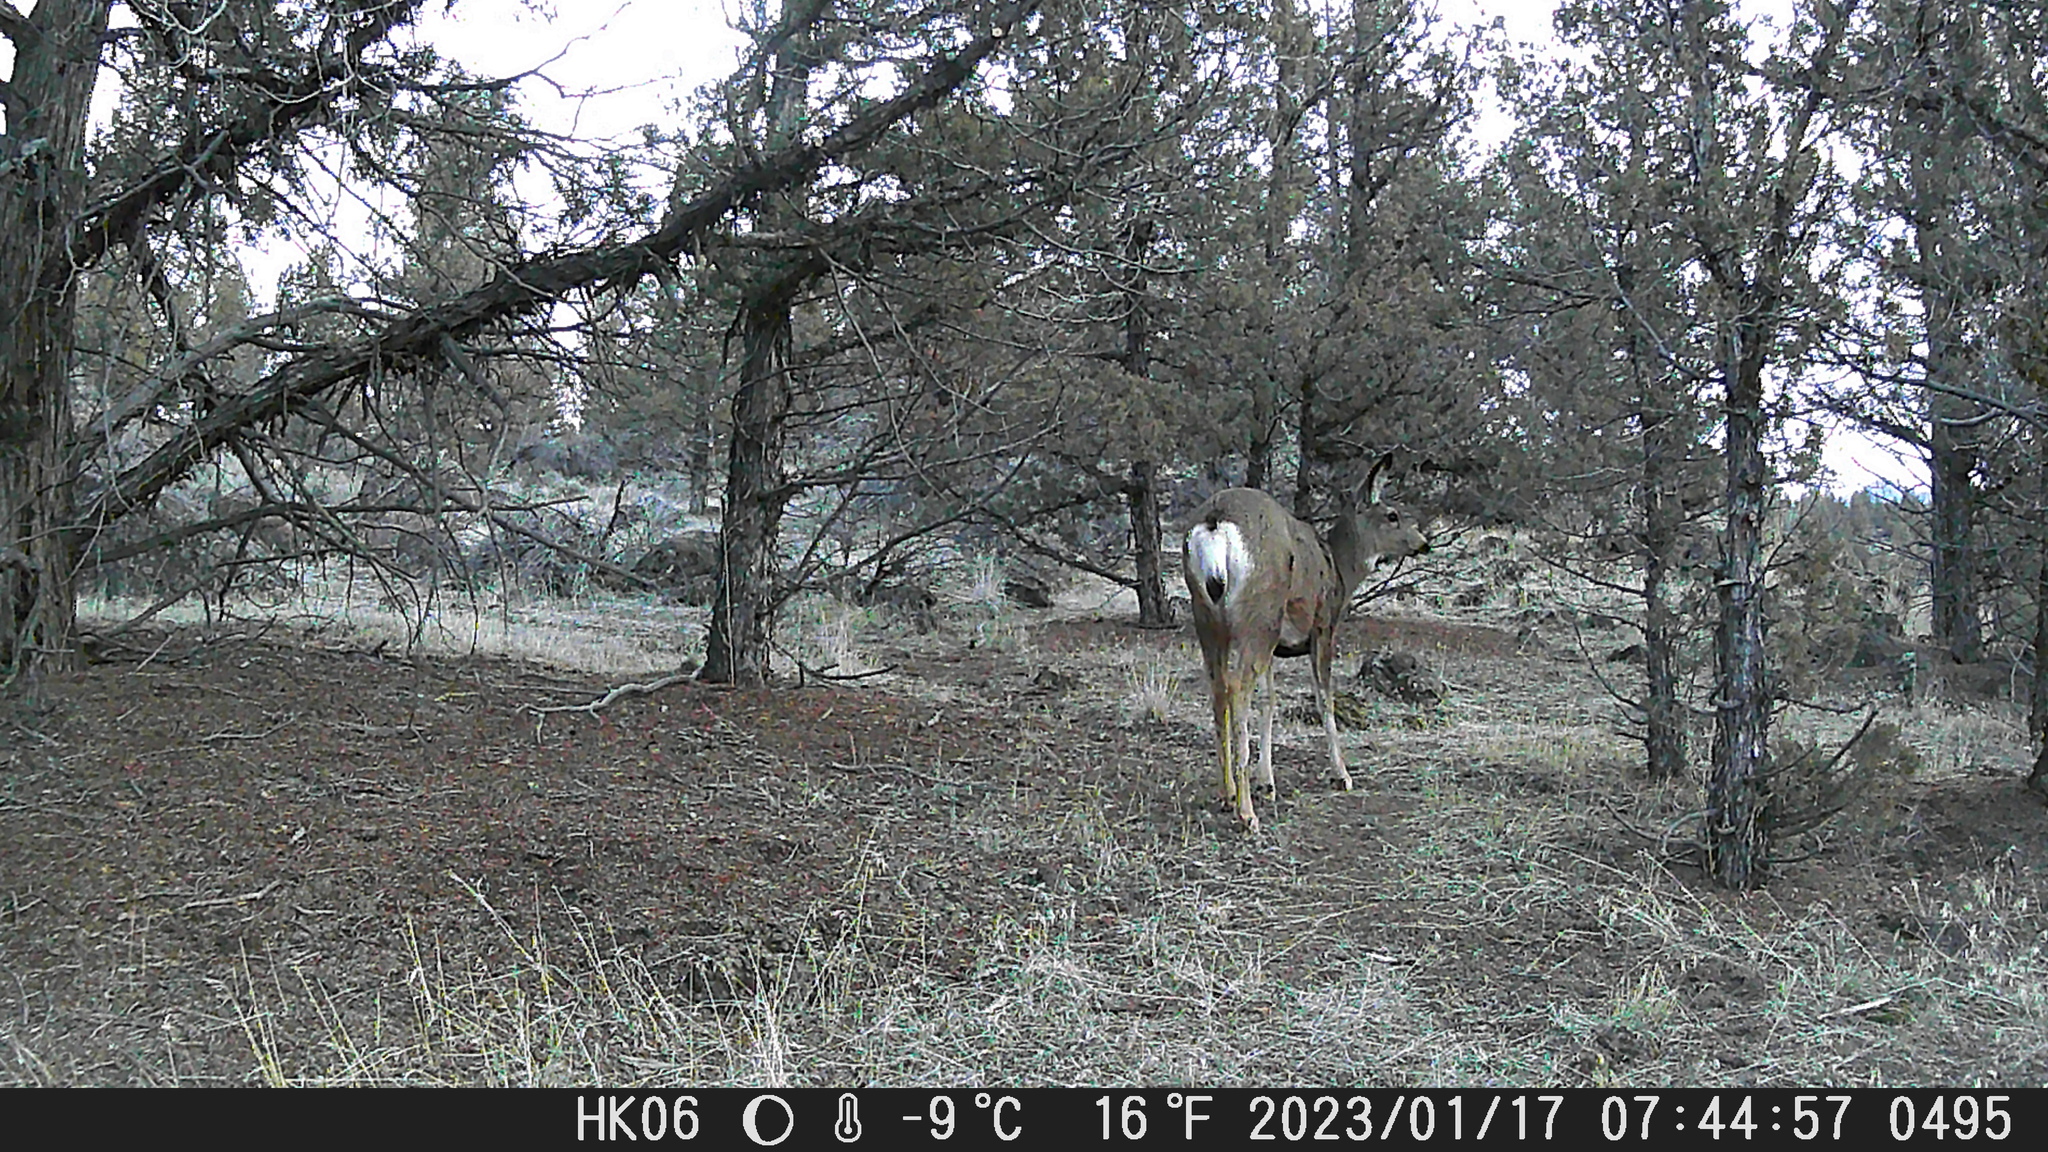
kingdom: Animalia
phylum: Chordata
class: Mammalia
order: Artiodactyla
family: Cervidae
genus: Odocoileus
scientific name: Odocoileus hemionus
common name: Mule deer
